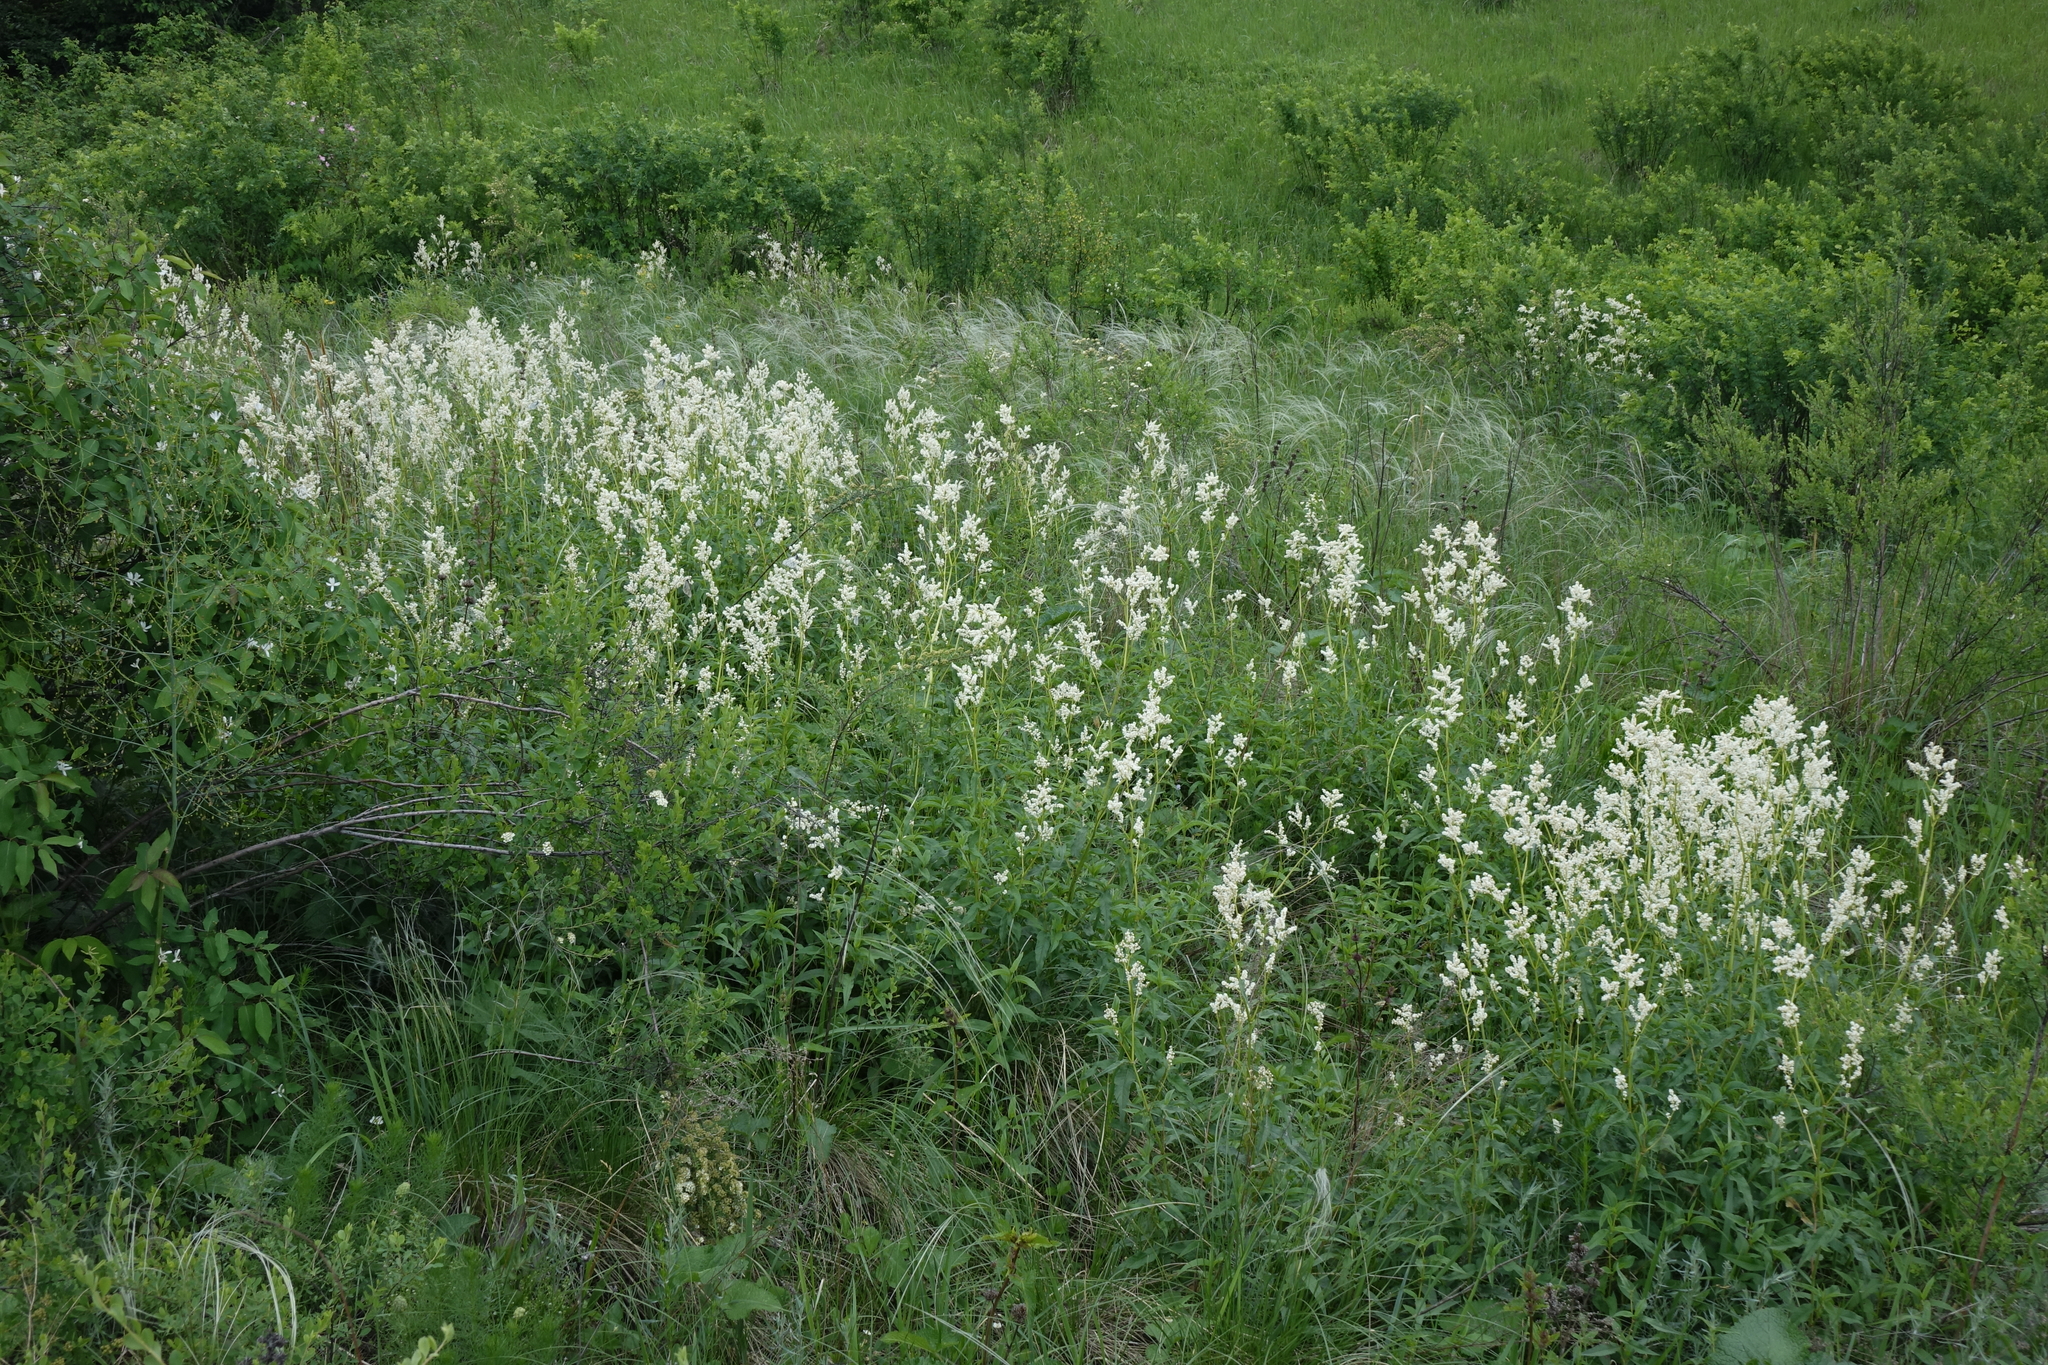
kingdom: Plantae
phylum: Tracheophyta
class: Magnoliopsida
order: Caryophyllales
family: Polygonaceae
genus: Koenigia
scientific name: Koenigia alpina
